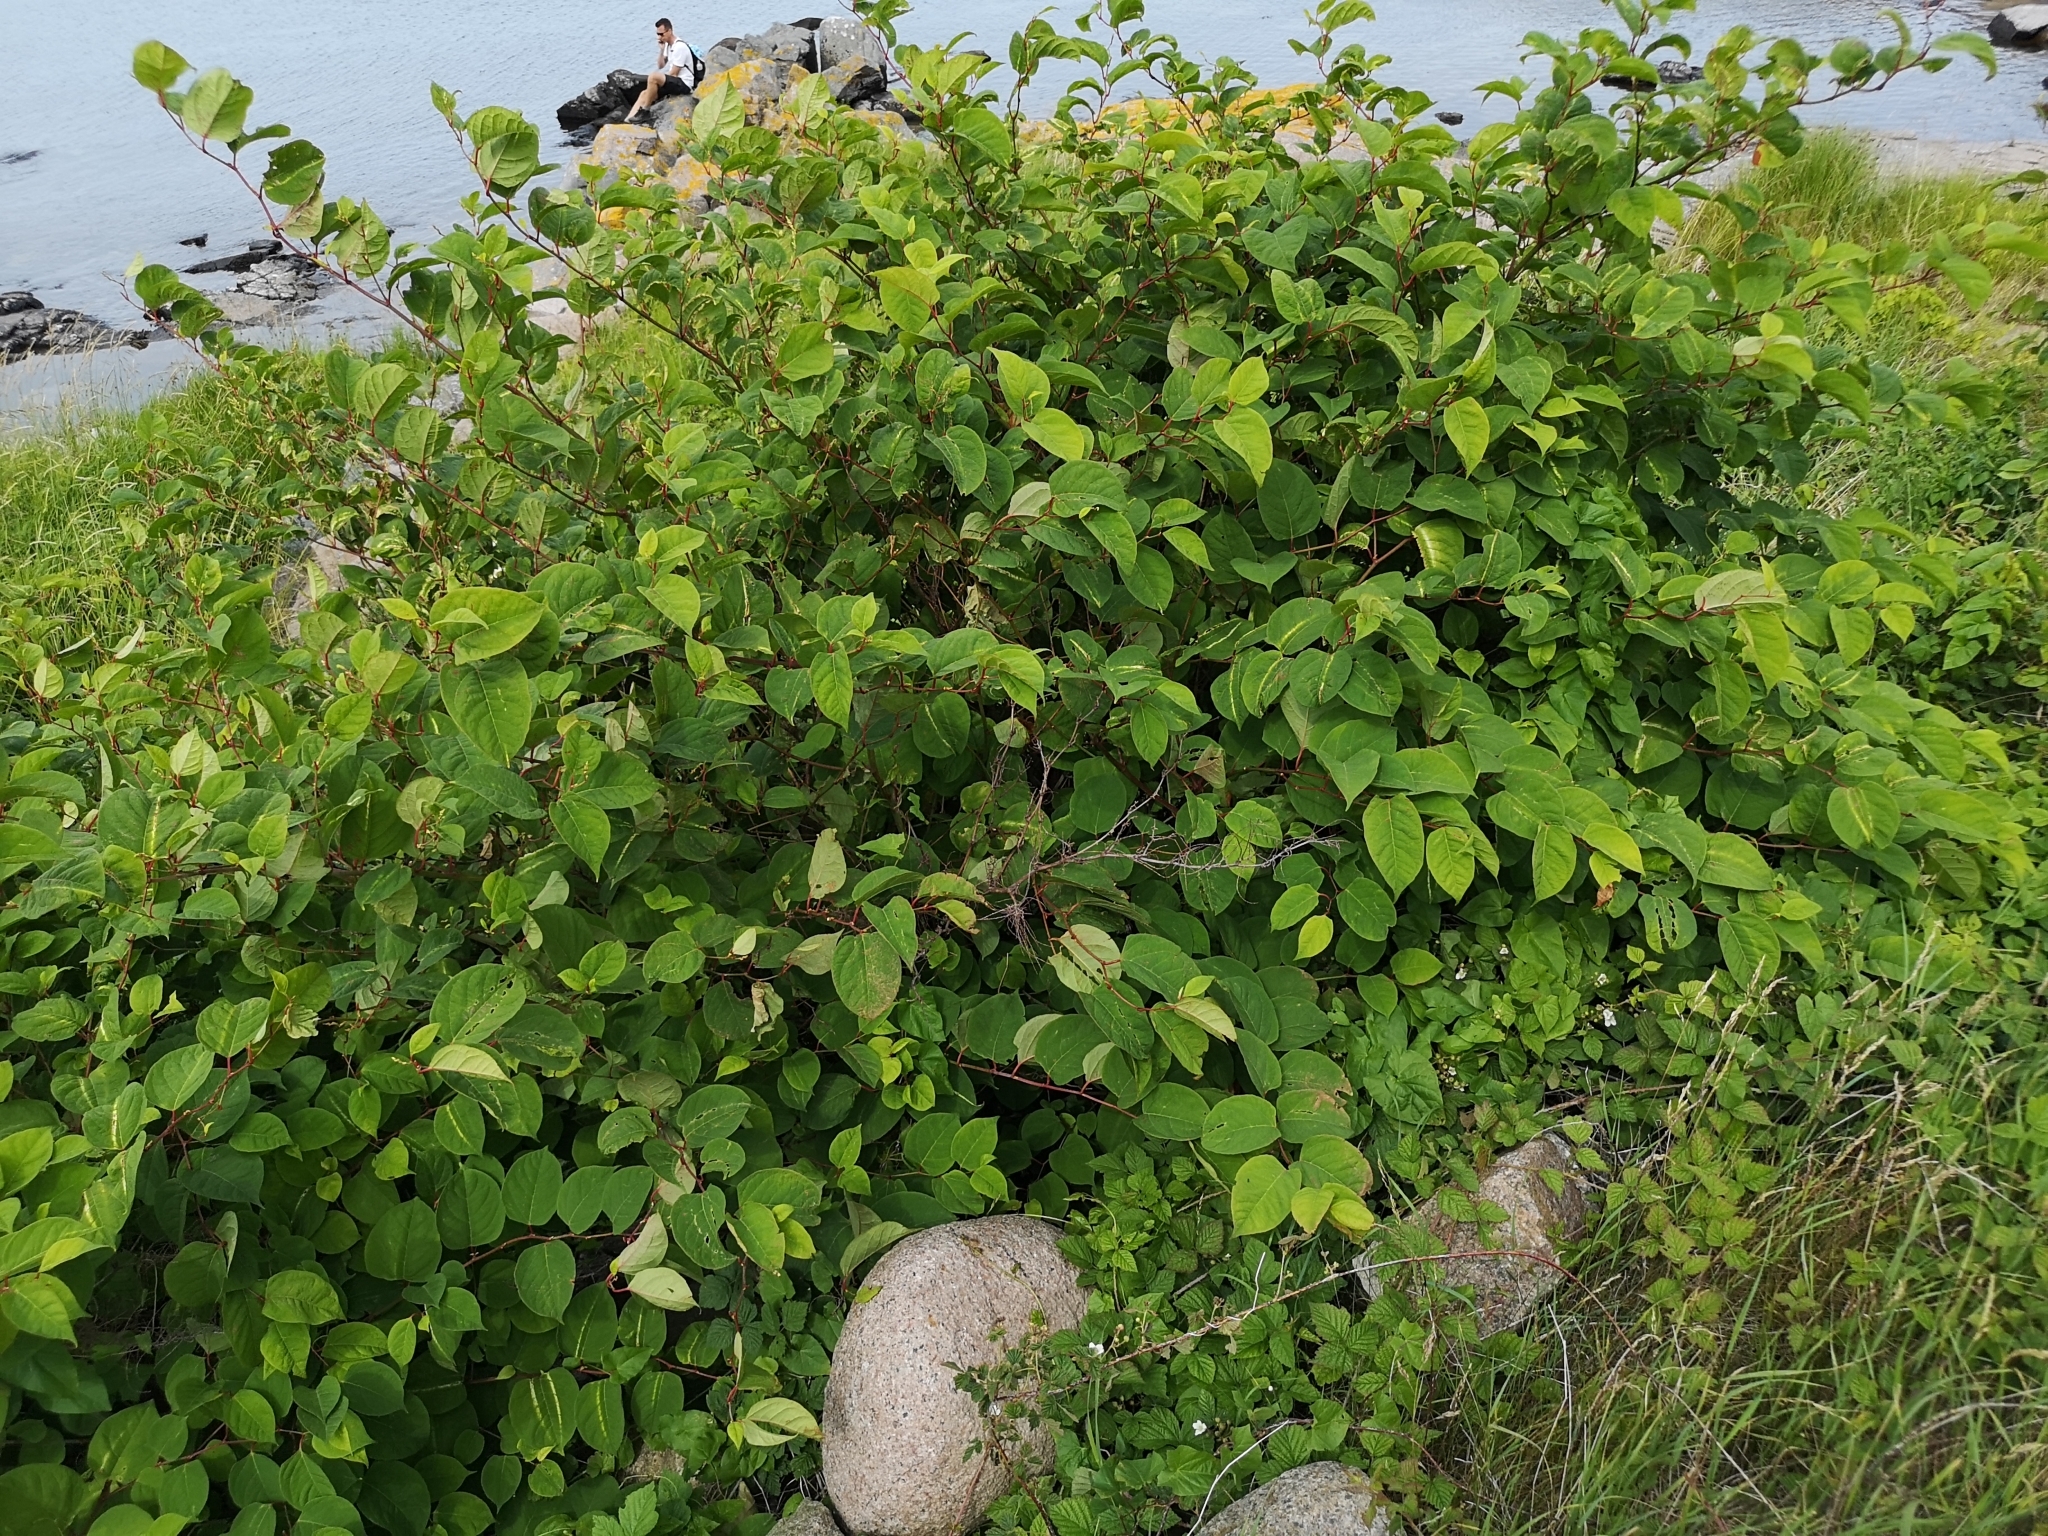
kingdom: Plantae
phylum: Tracheophyta
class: Magnoliopsida
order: Caryophyllales
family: Polygonaceae
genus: Reynoutria
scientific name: Reynoutria japonica
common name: Japanese knotweed
